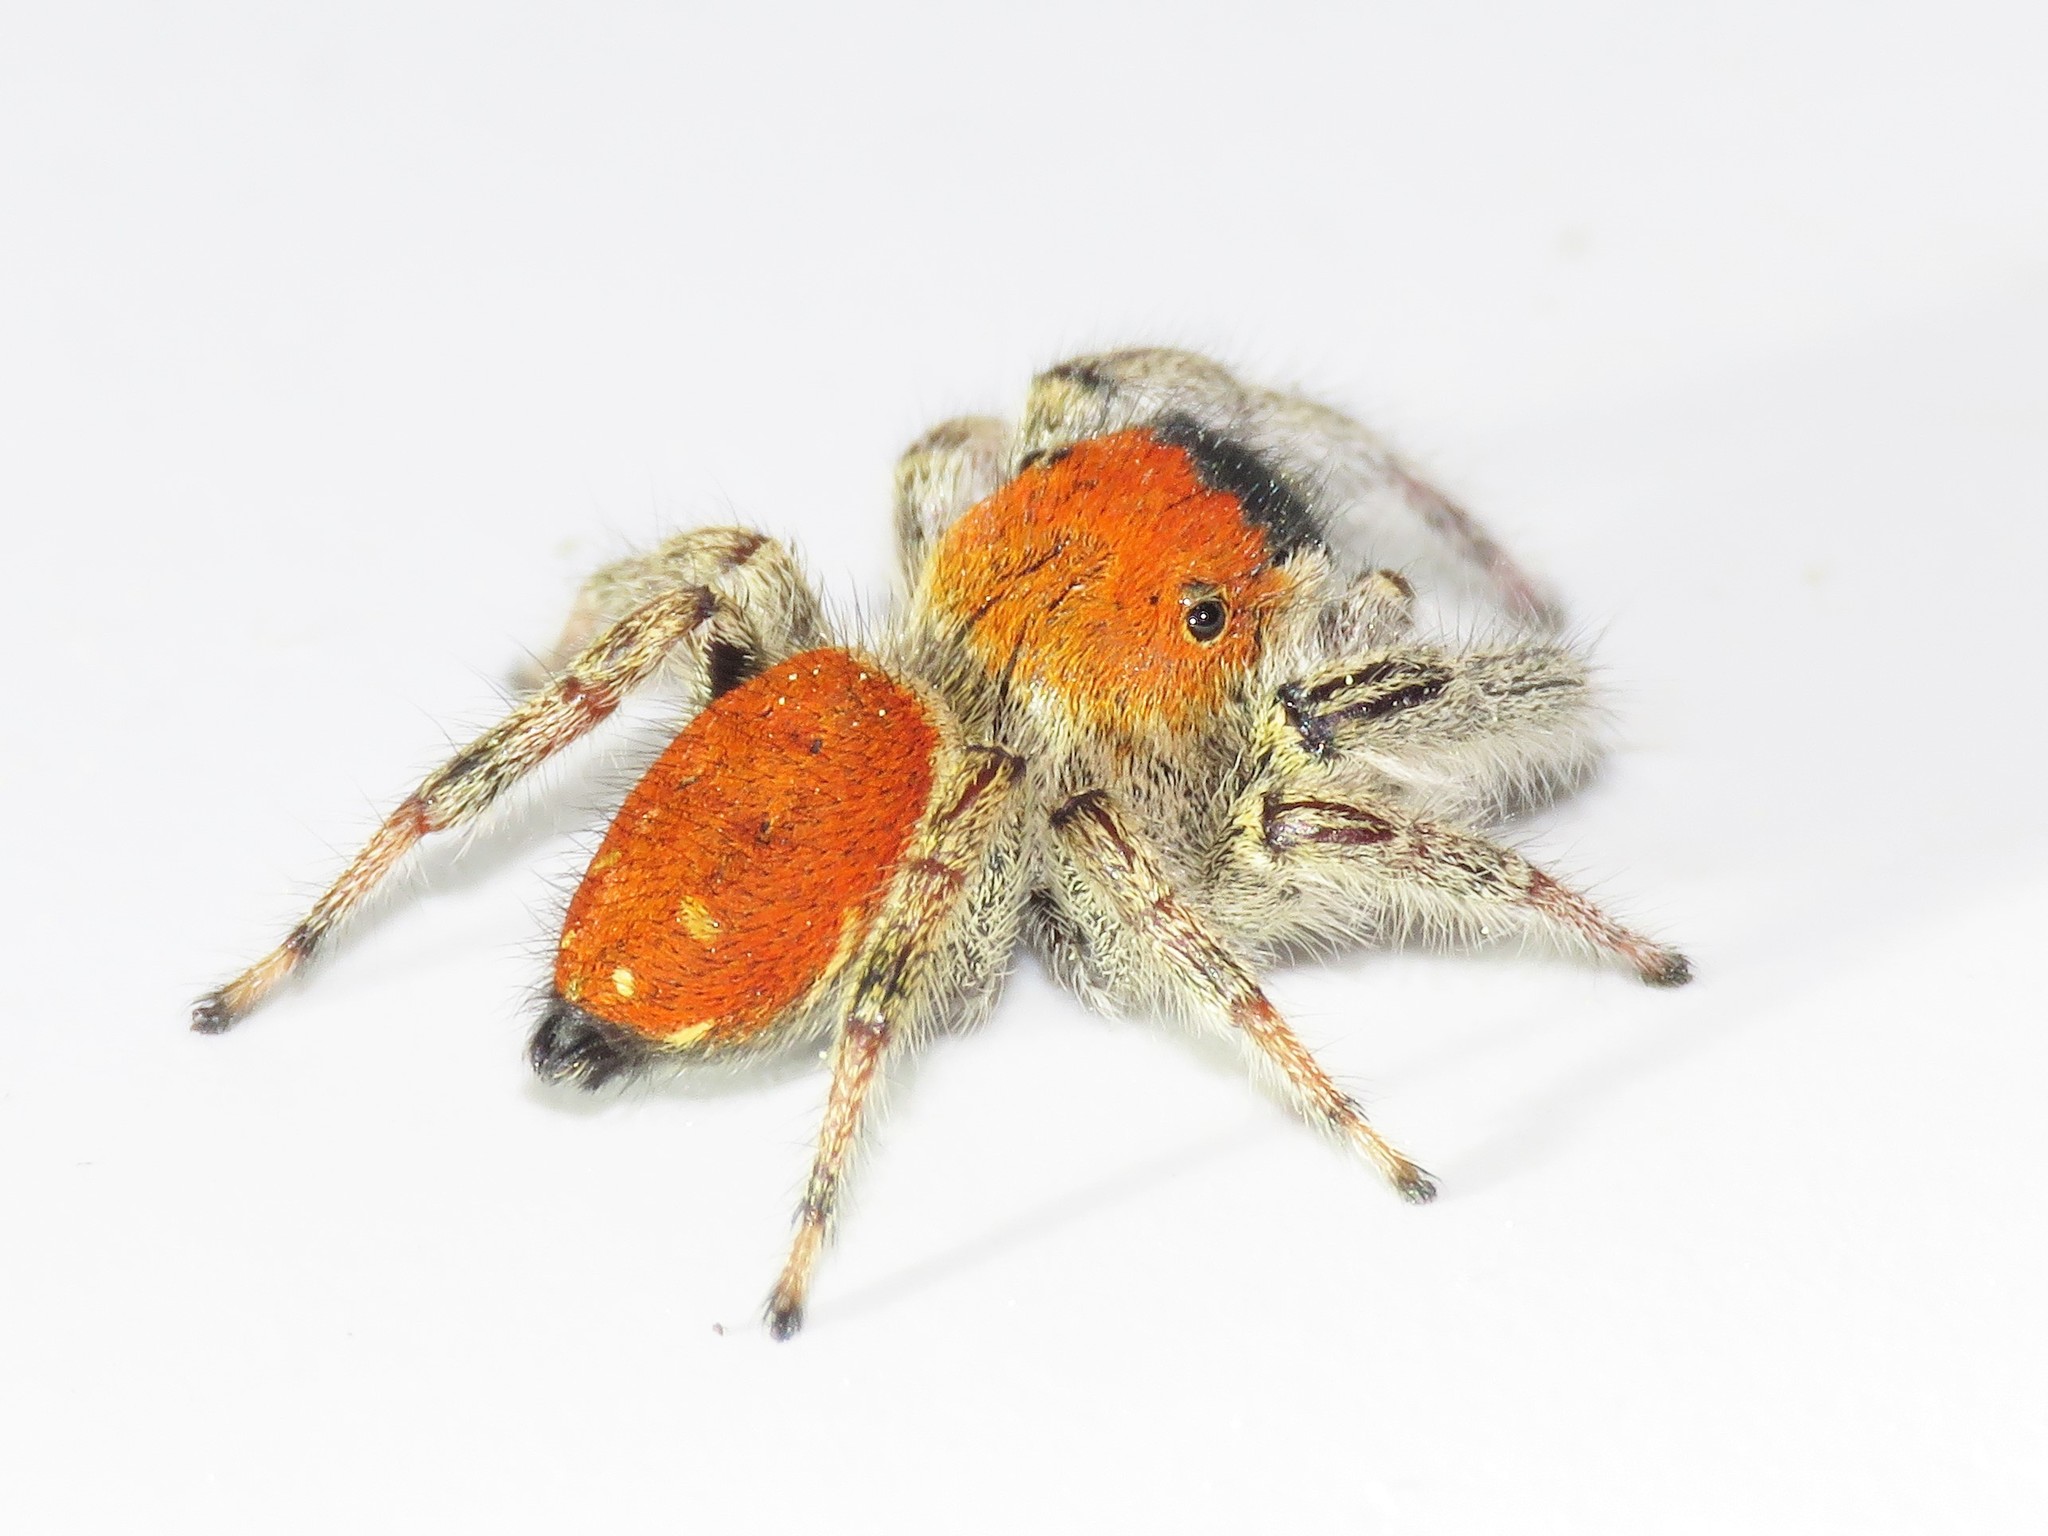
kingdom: Animalia
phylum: Arthropoda
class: Arachnida
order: Araneae
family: Salticidae
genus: Phidippus
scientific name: Phidippus whitmani
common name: Whitman's jumping spider
